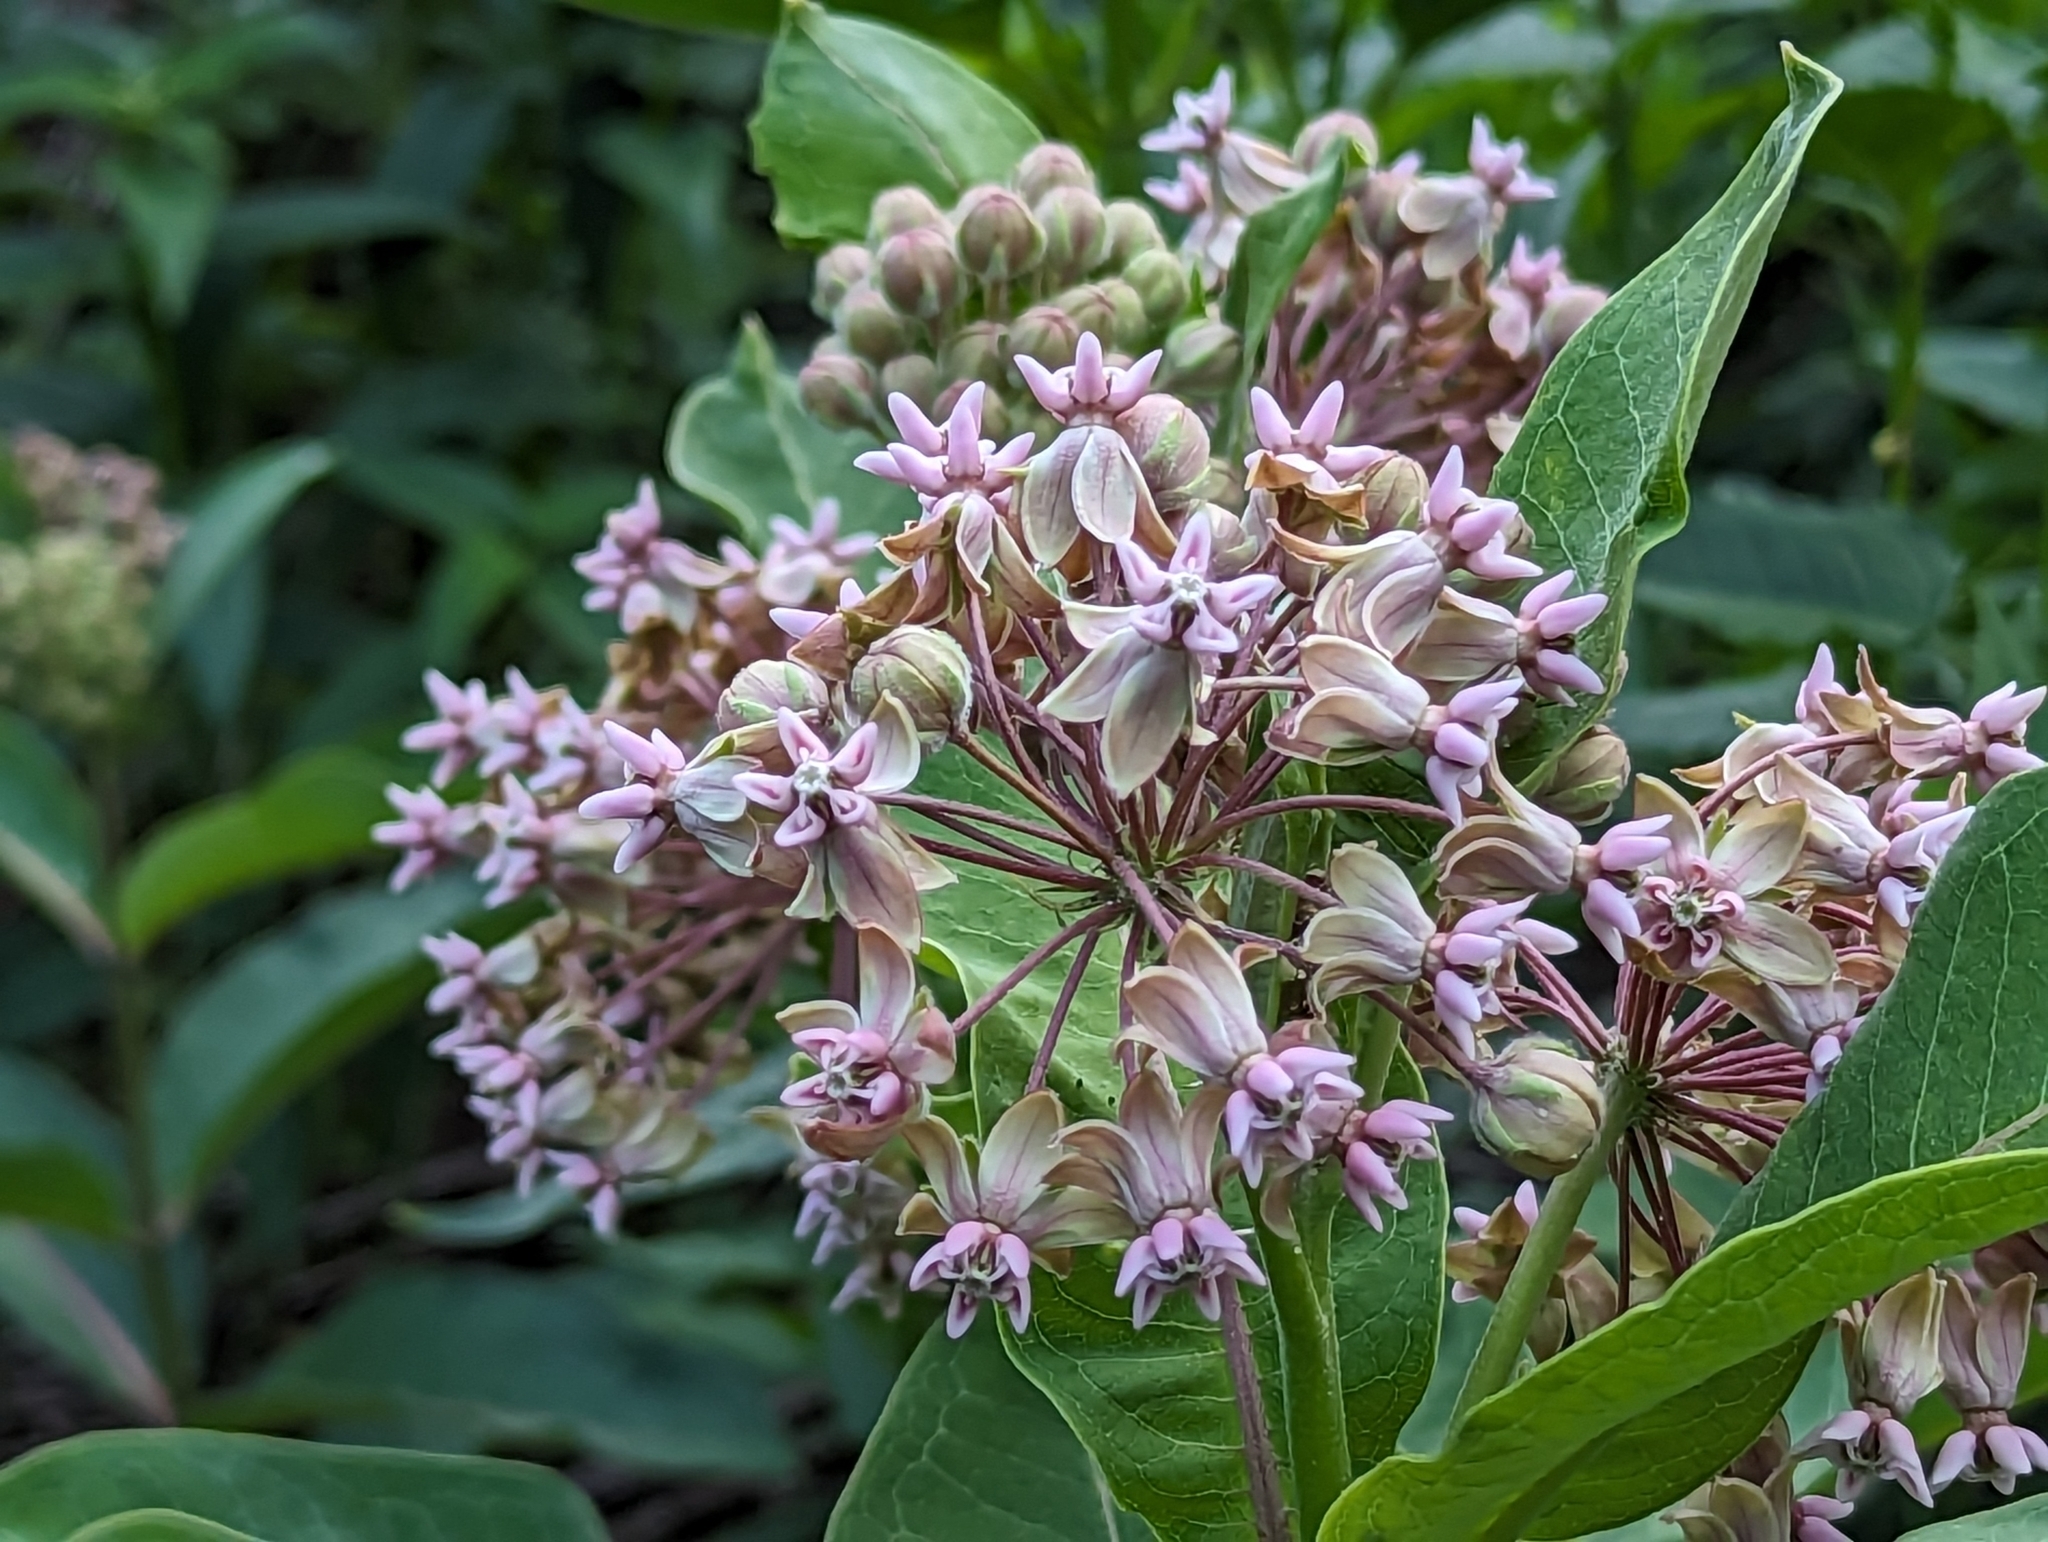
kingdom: Plantae
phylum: Tracheophyta
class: Magnoliopsida
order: Gentianales
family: Apocynaceae
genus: Asclepias
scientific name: Asclepias syriaca
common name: Common milkweed
